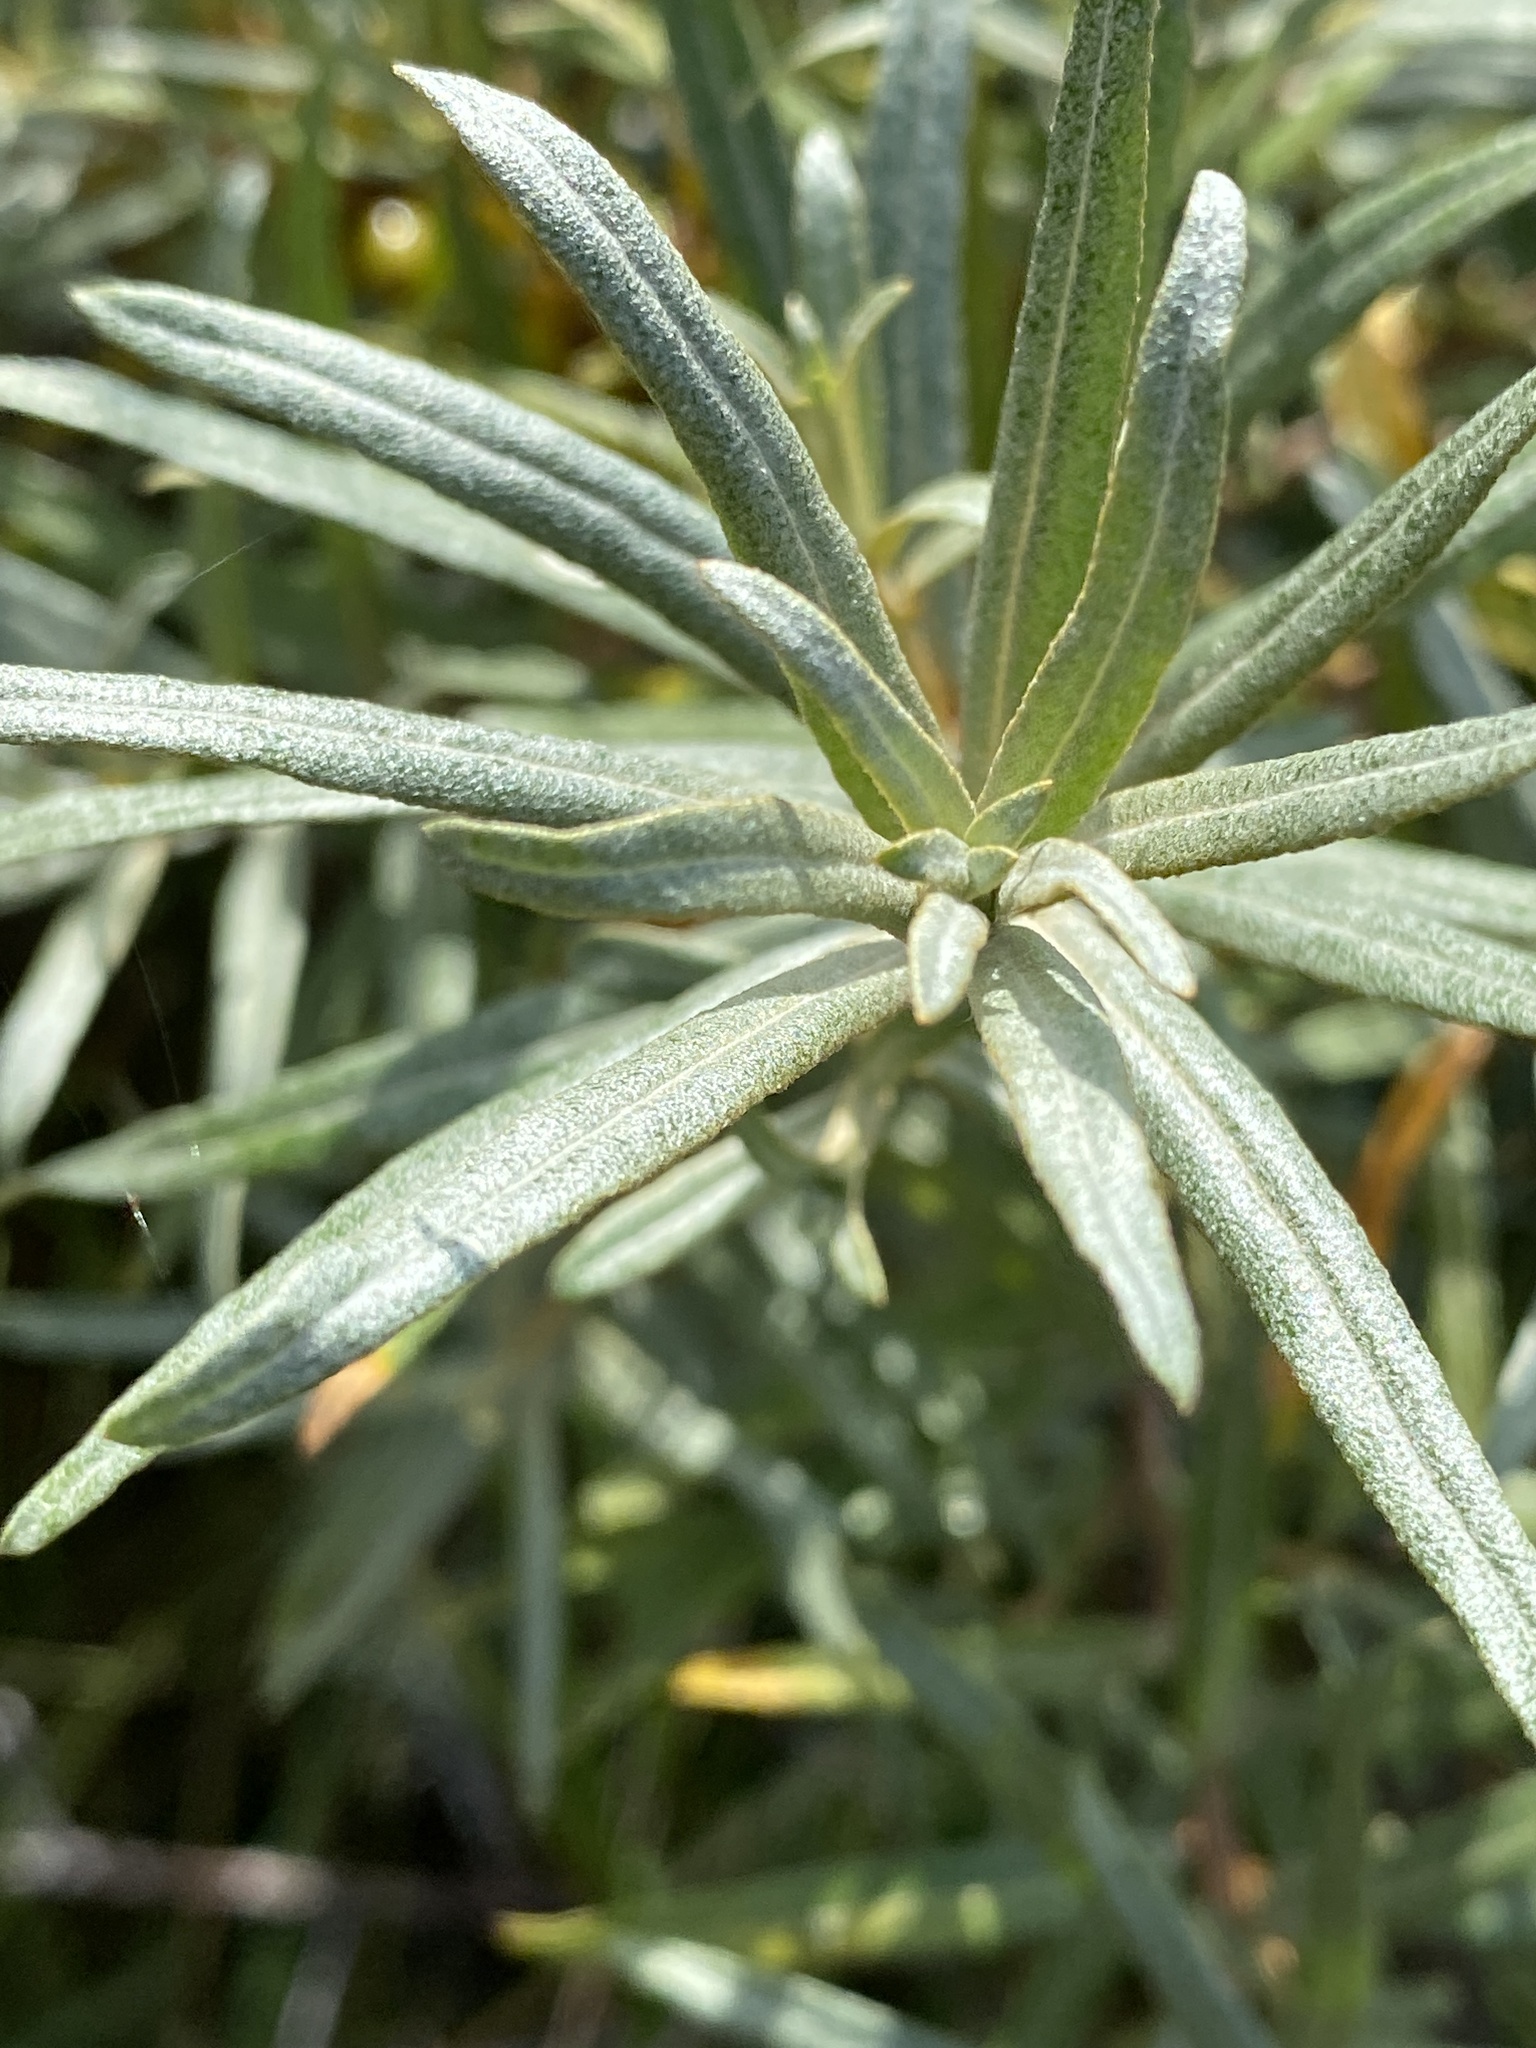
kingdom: Plantae
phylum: Tracheophyta
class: Magnoliopsida
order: Rosales
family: Elaeagnaceae
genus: Hippophae
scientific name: Hippophae rhamnoides
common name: Sea-buckthorn
